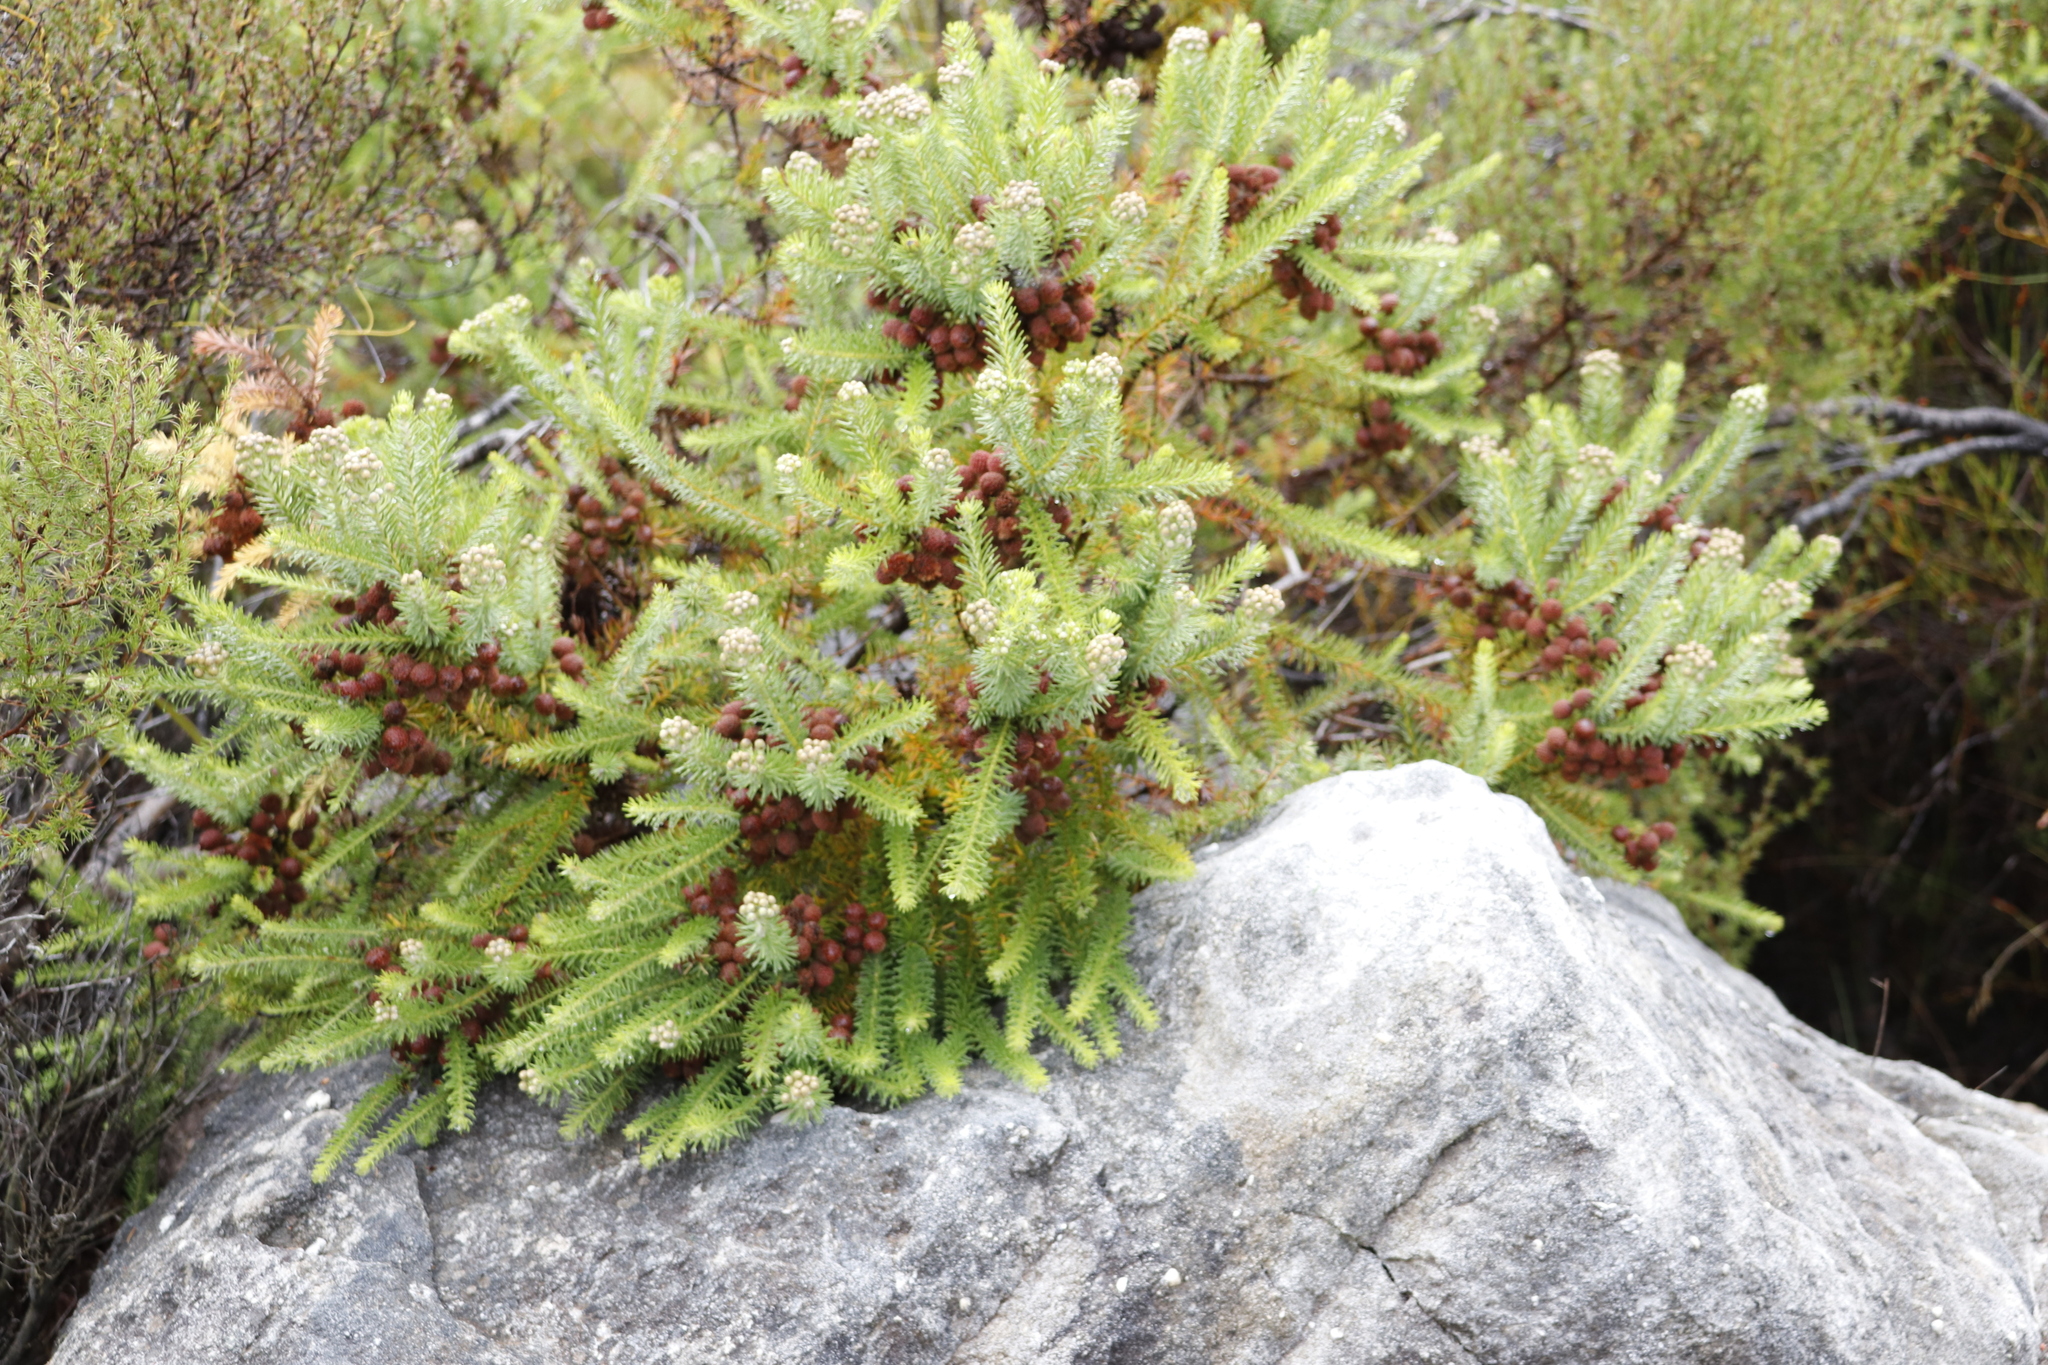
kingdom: Plantae
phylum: Tracheophyta
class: Magnoliopsida
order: Bruniales
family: Bruniaceae
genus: Berzelia
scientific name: Berzelia squarrosa
